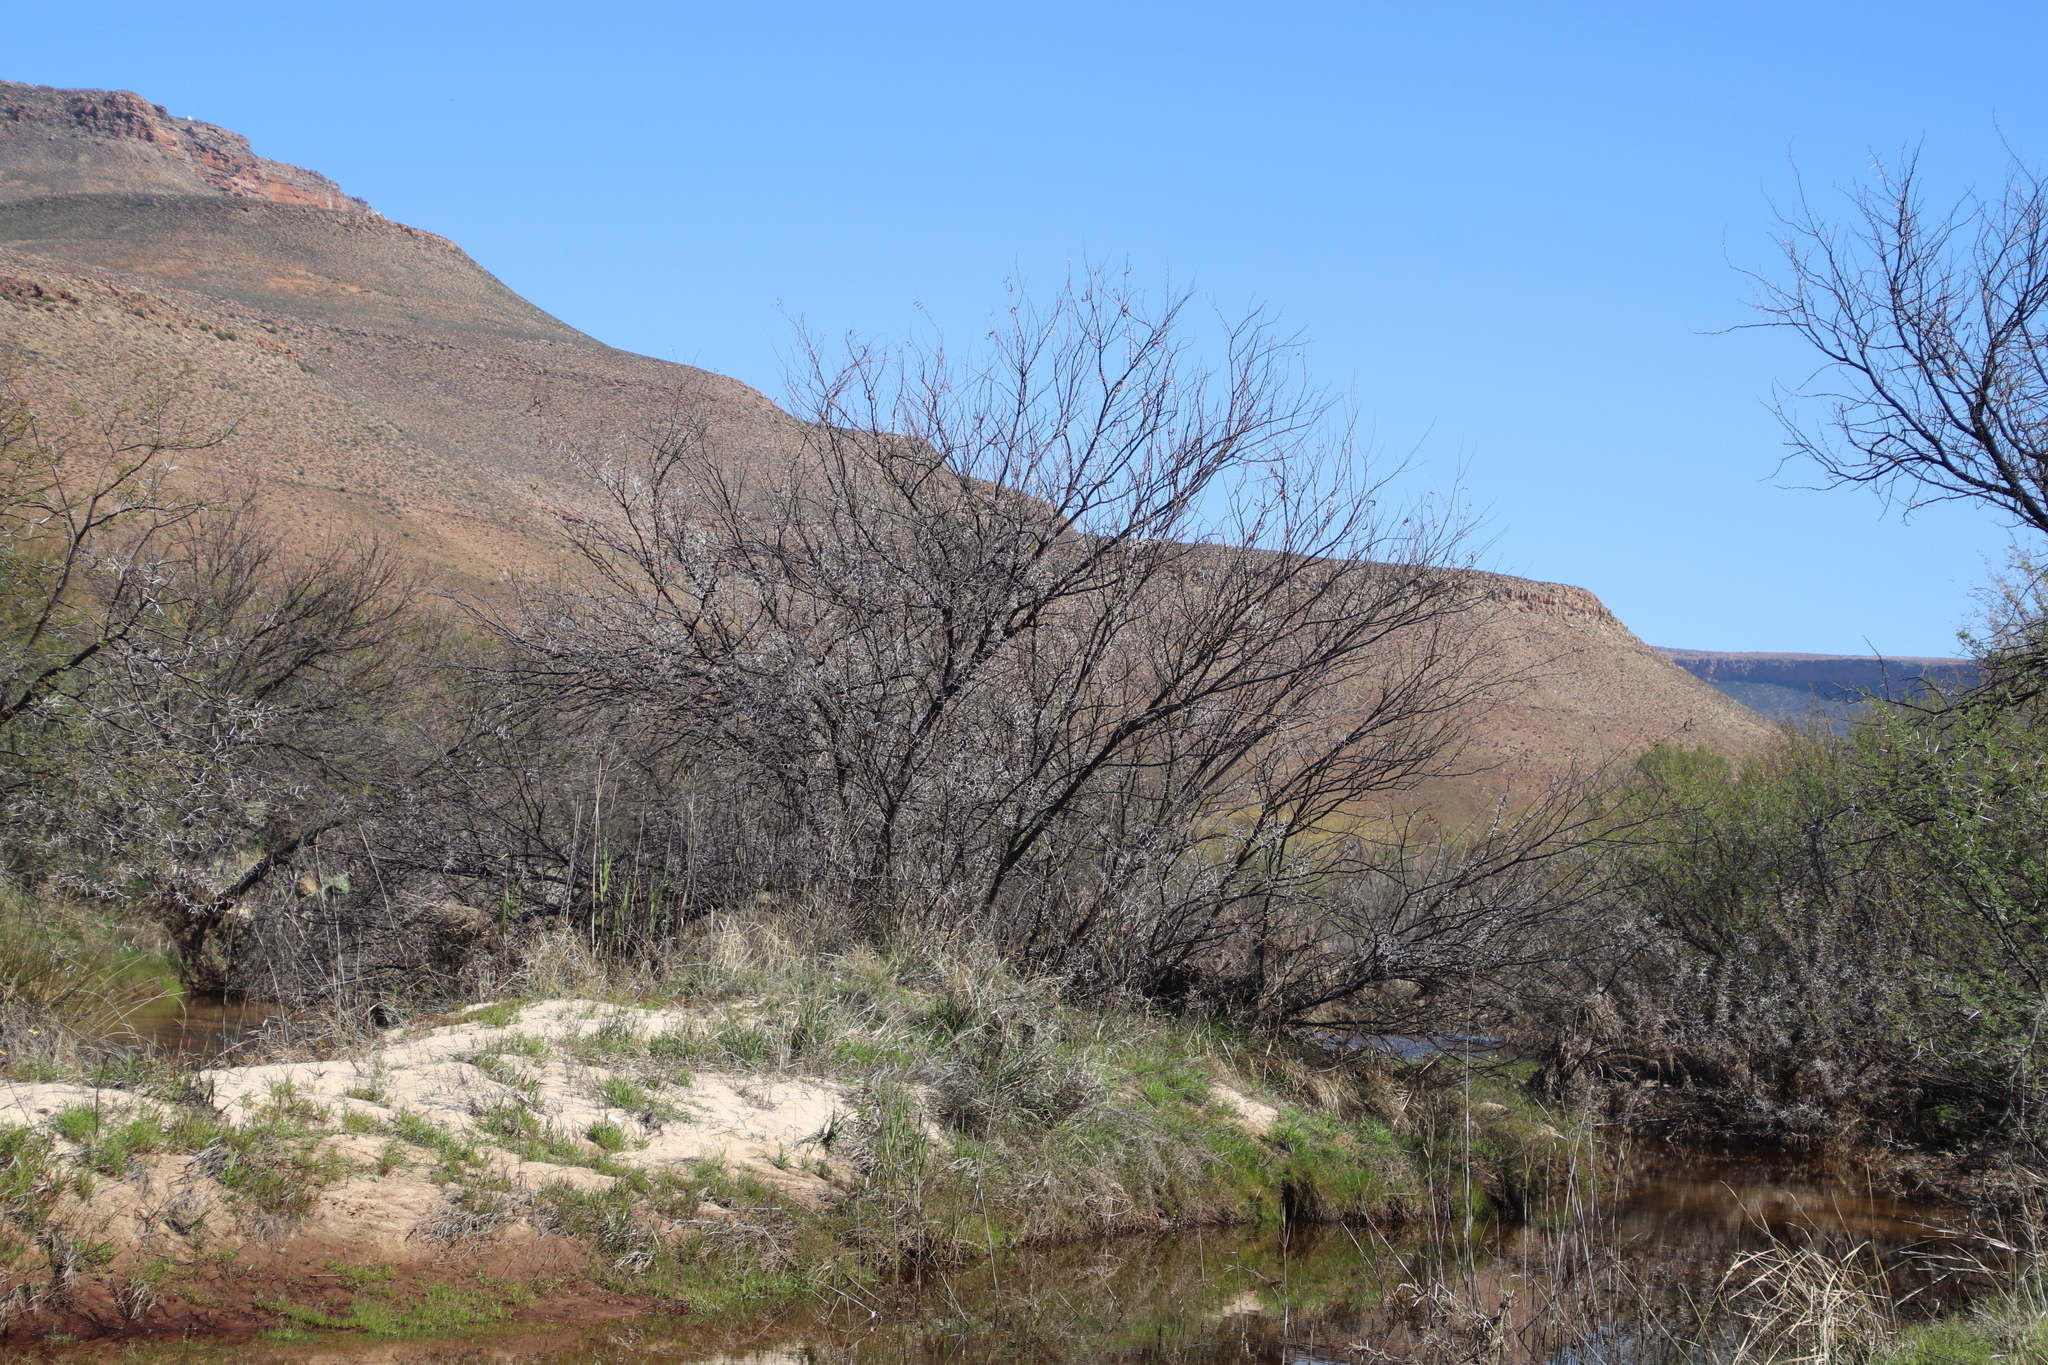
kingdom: Plantae
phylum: Tracheophyta
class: Magnoliopsida
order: Fabales
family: Fabaceae
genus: Vachellia
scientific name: Vachellia karroo
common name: Sweet thorn
